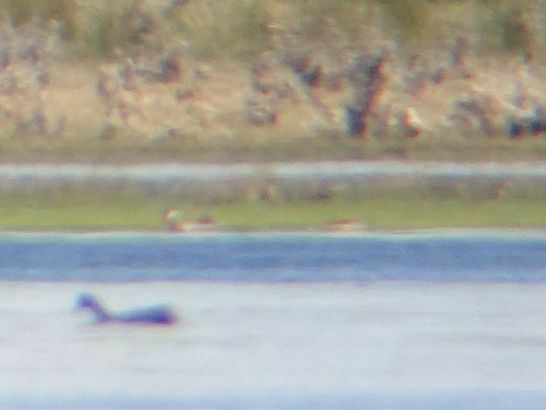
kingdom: Animalia
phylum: Chordata
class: Aves
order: Anseriformes
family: Anatidae
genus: Anas
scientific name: Anas erythrorhyncha
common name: Red-billed teal
